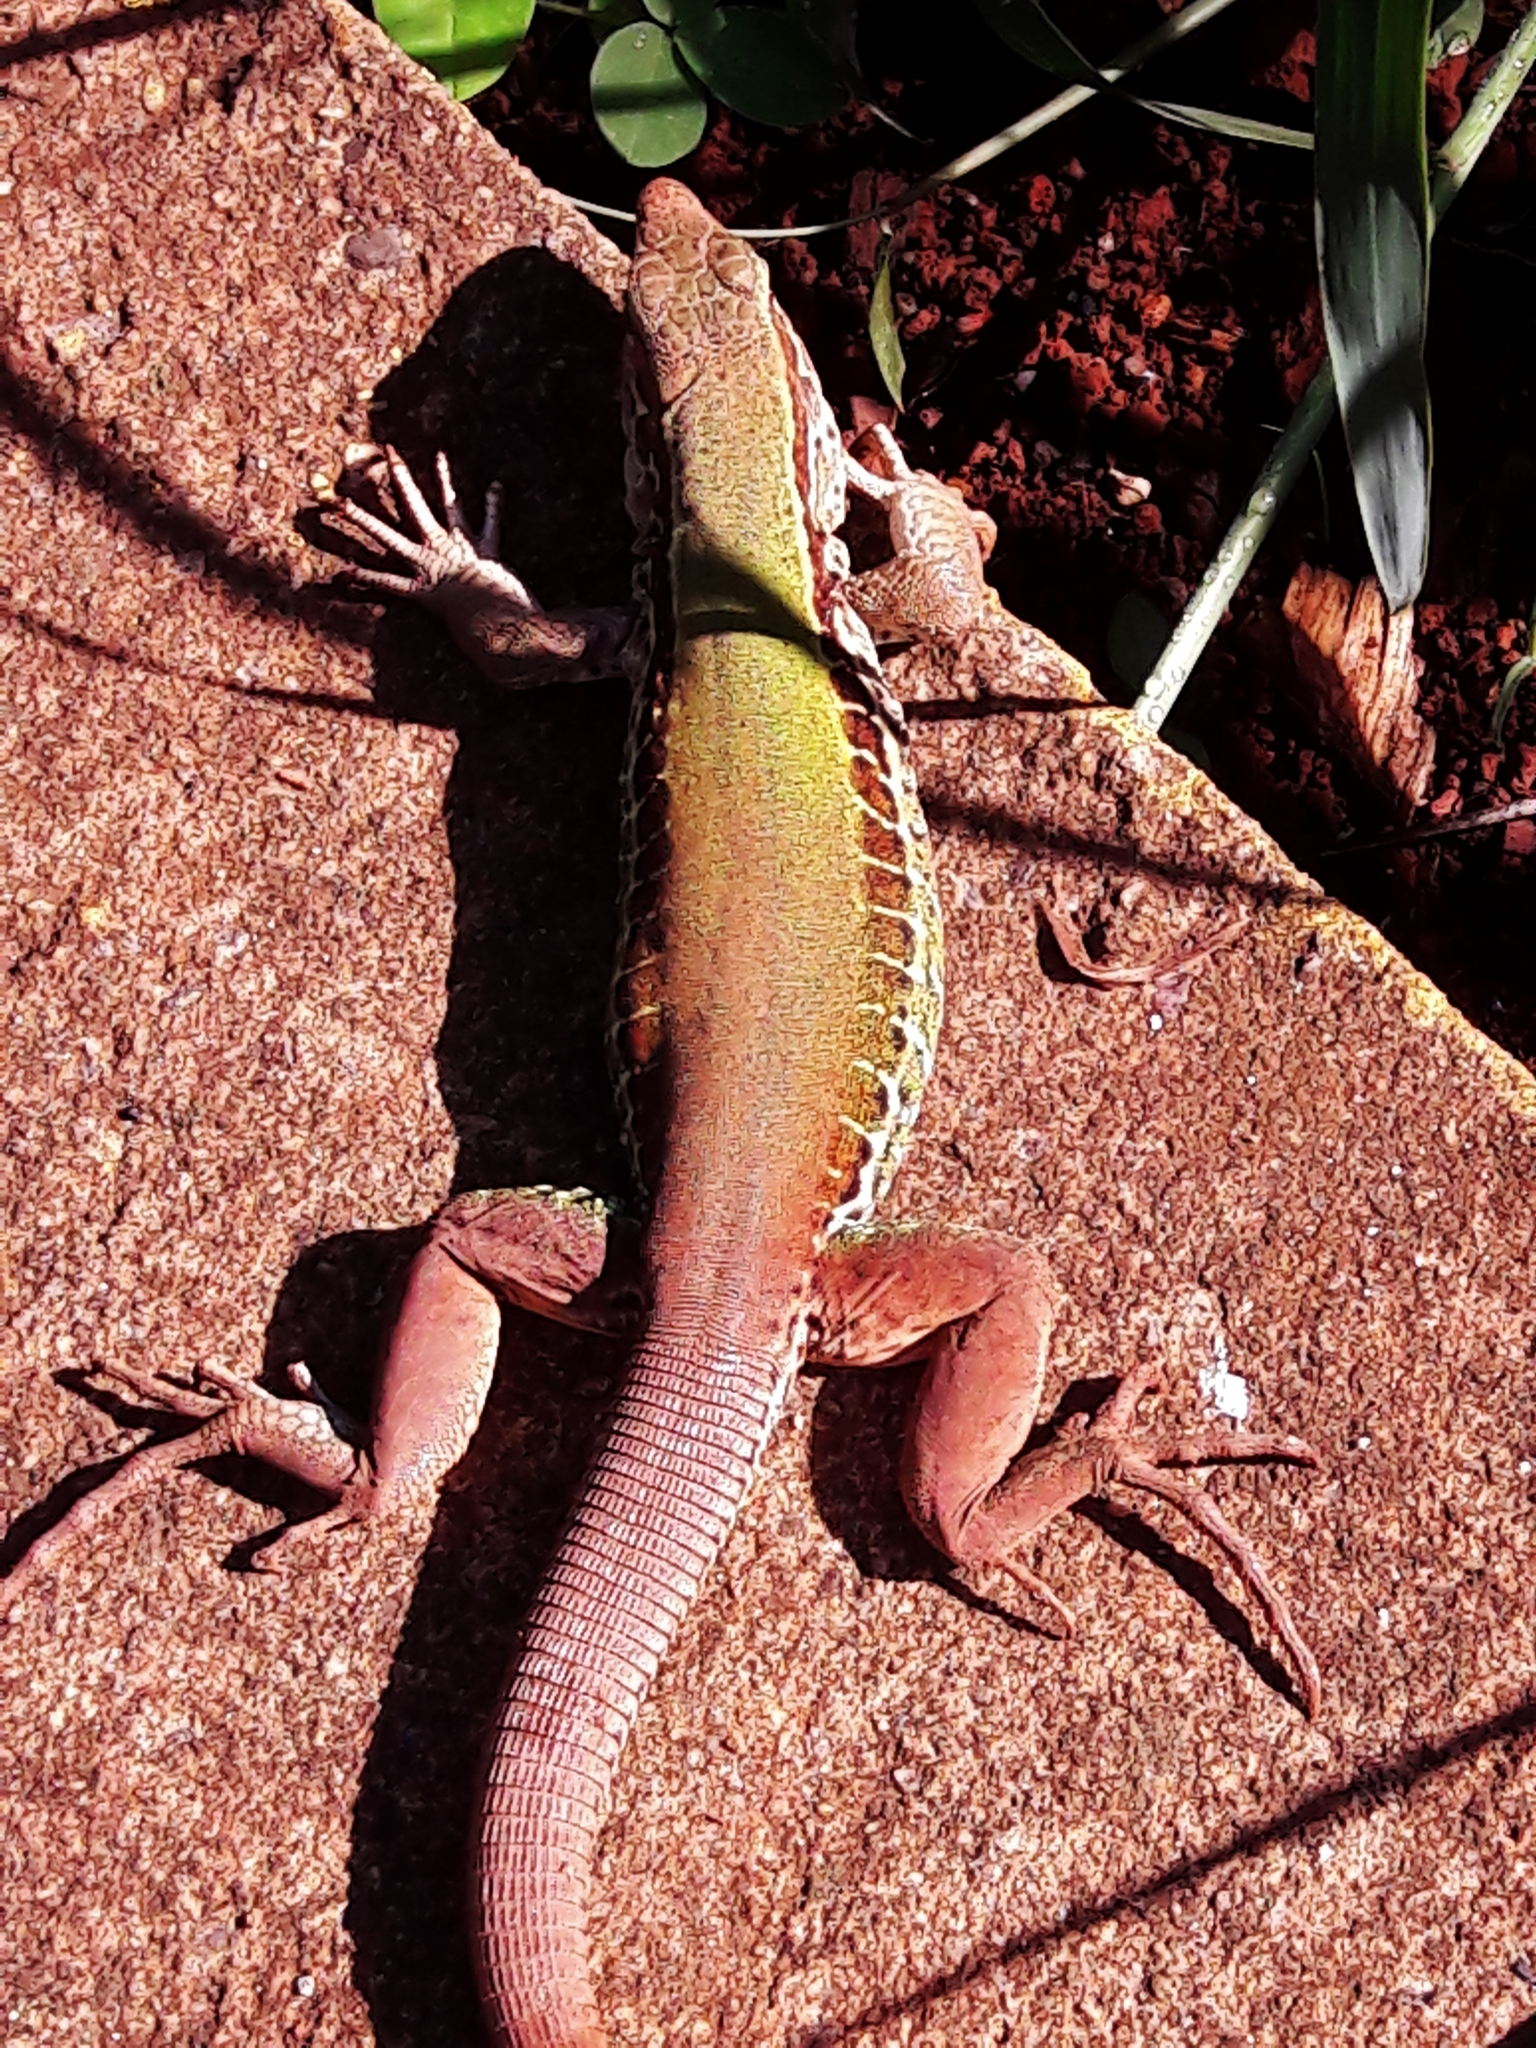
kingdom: Animalia
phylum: Chordata
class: Squamata
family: Teiidae
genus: Ameiva
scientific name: Ameiva ameiva
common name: Giant ameiva
